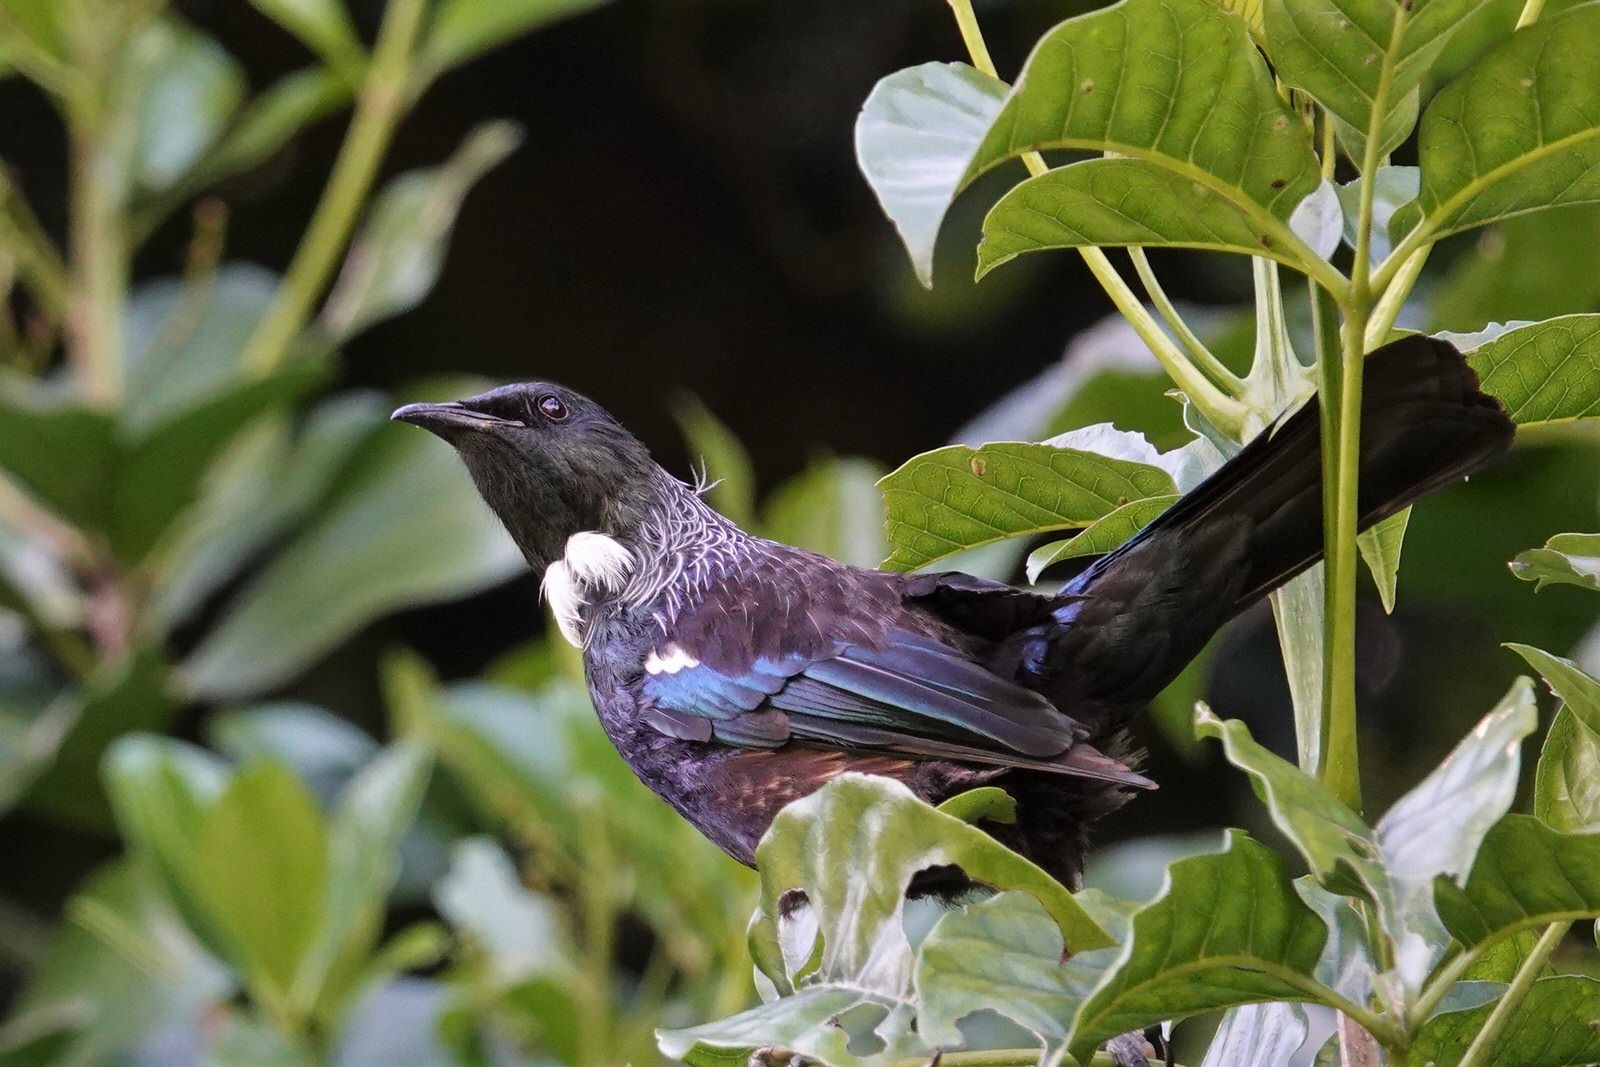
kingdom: Animalia
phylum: Chordata
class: Aves
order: Passeriformes
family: Meliphagidae
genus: Prosthemadera
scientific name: Prosthemadera novaeseelandiae
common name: Tui
